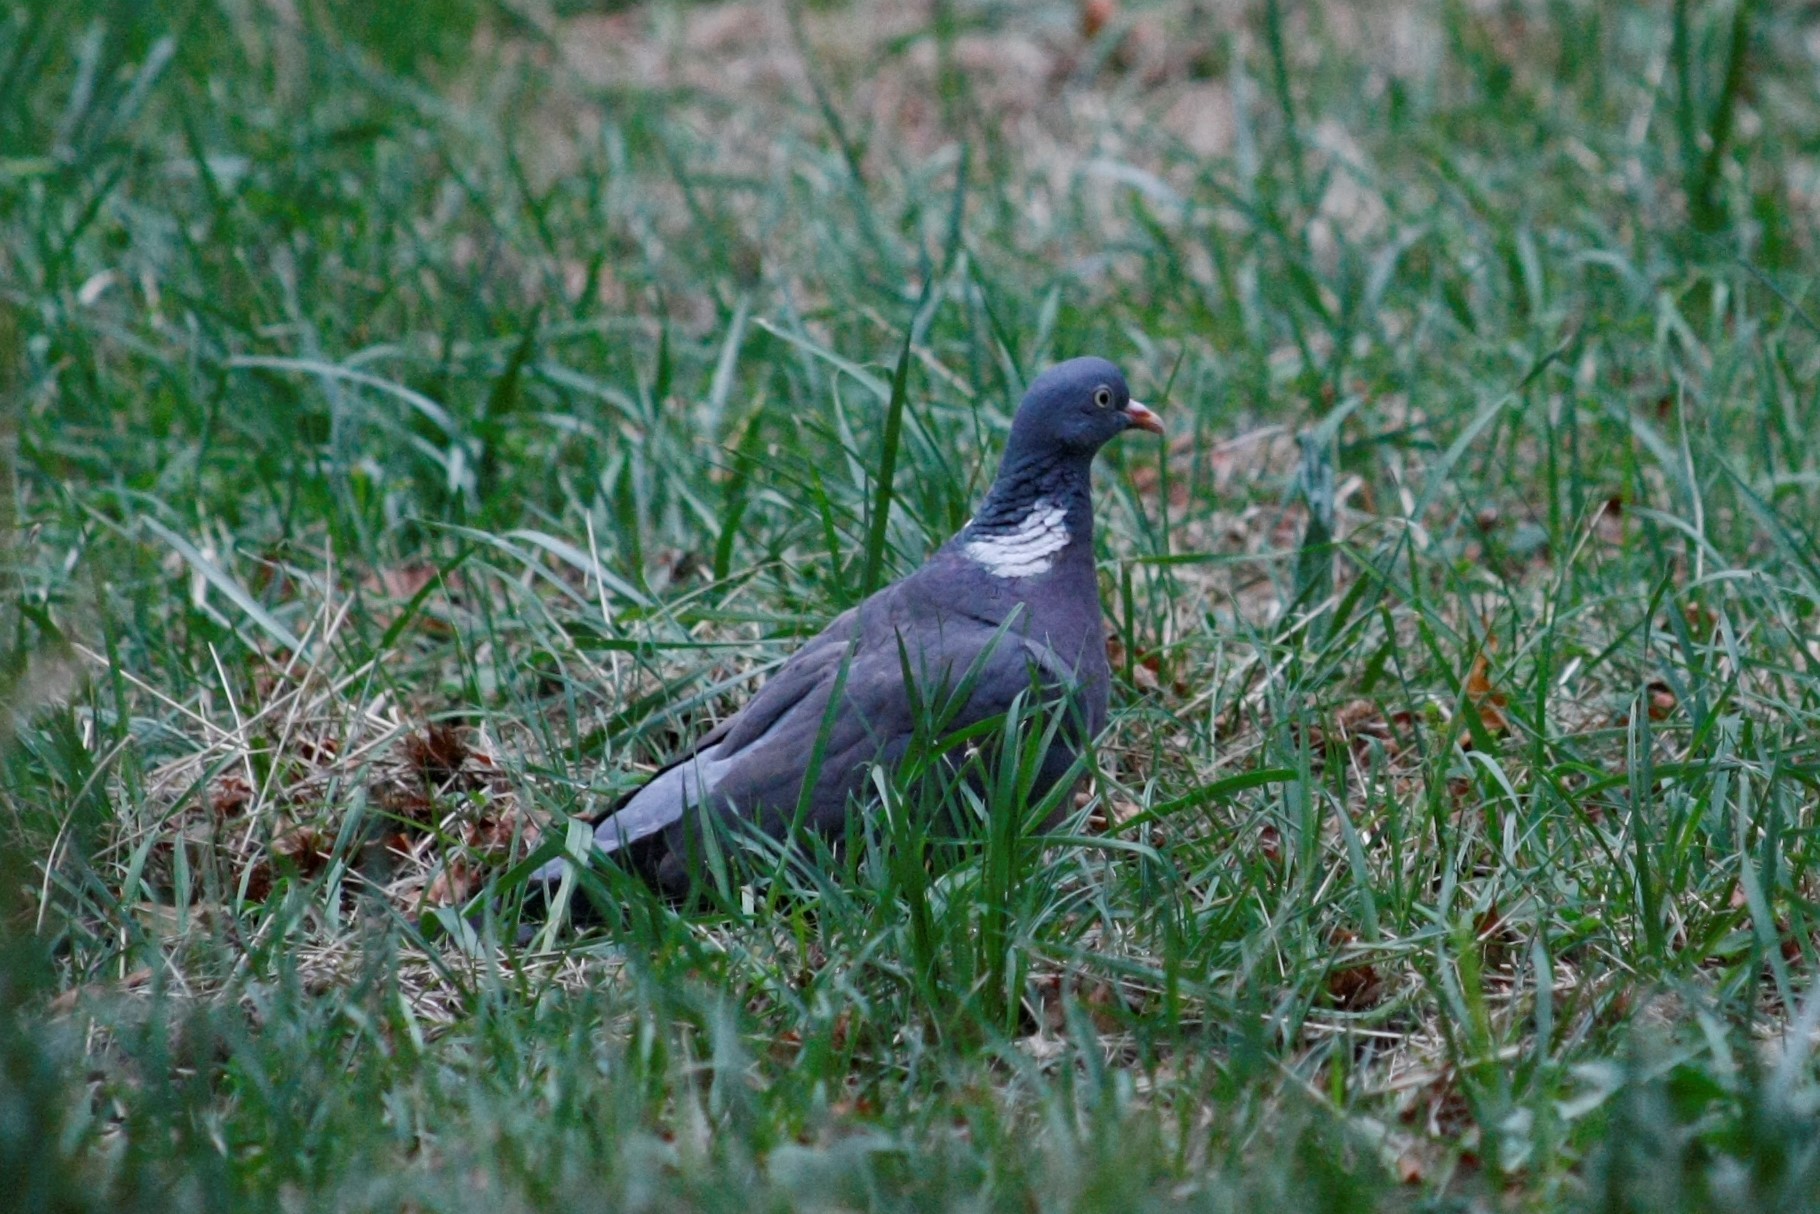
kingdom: Animalia
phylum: Chordata
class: Aves
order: Columbiformes
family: Columbidae
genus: Columba
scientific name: Columba palumbus
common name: Common wood pigeon
